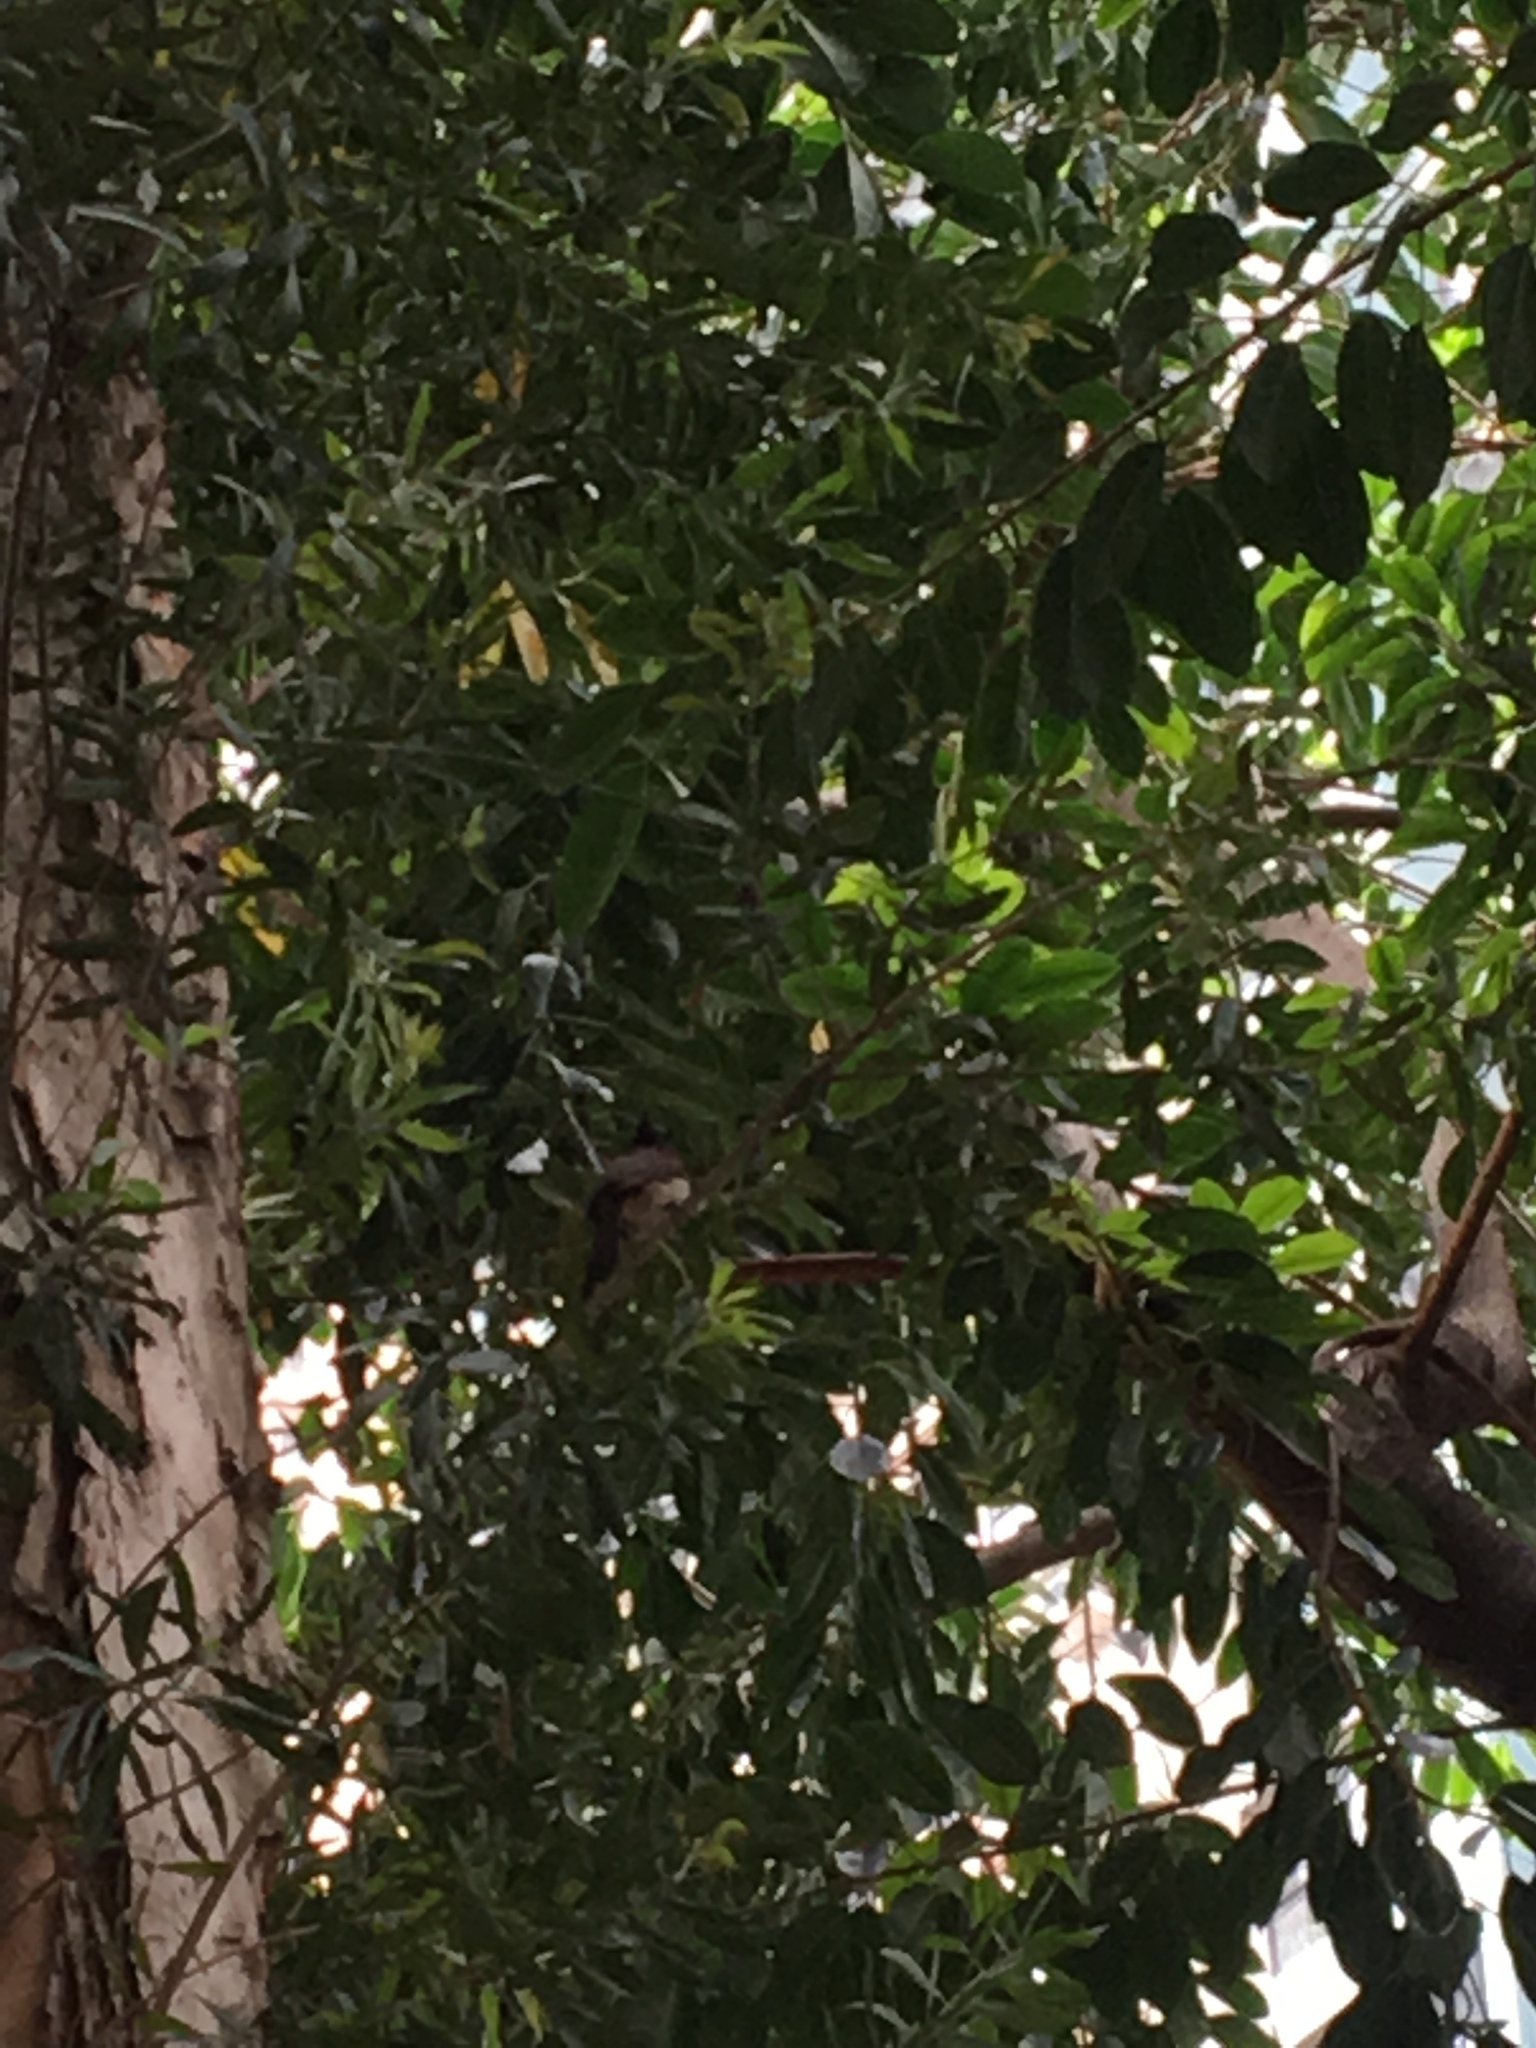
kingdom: Animalia
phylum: Chordata
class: Aves
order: Passeriformes
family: Pycnonotidae
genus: Pycnonotus
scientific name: Pycnonotus jocosus
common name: Red-whiskered bulbul
